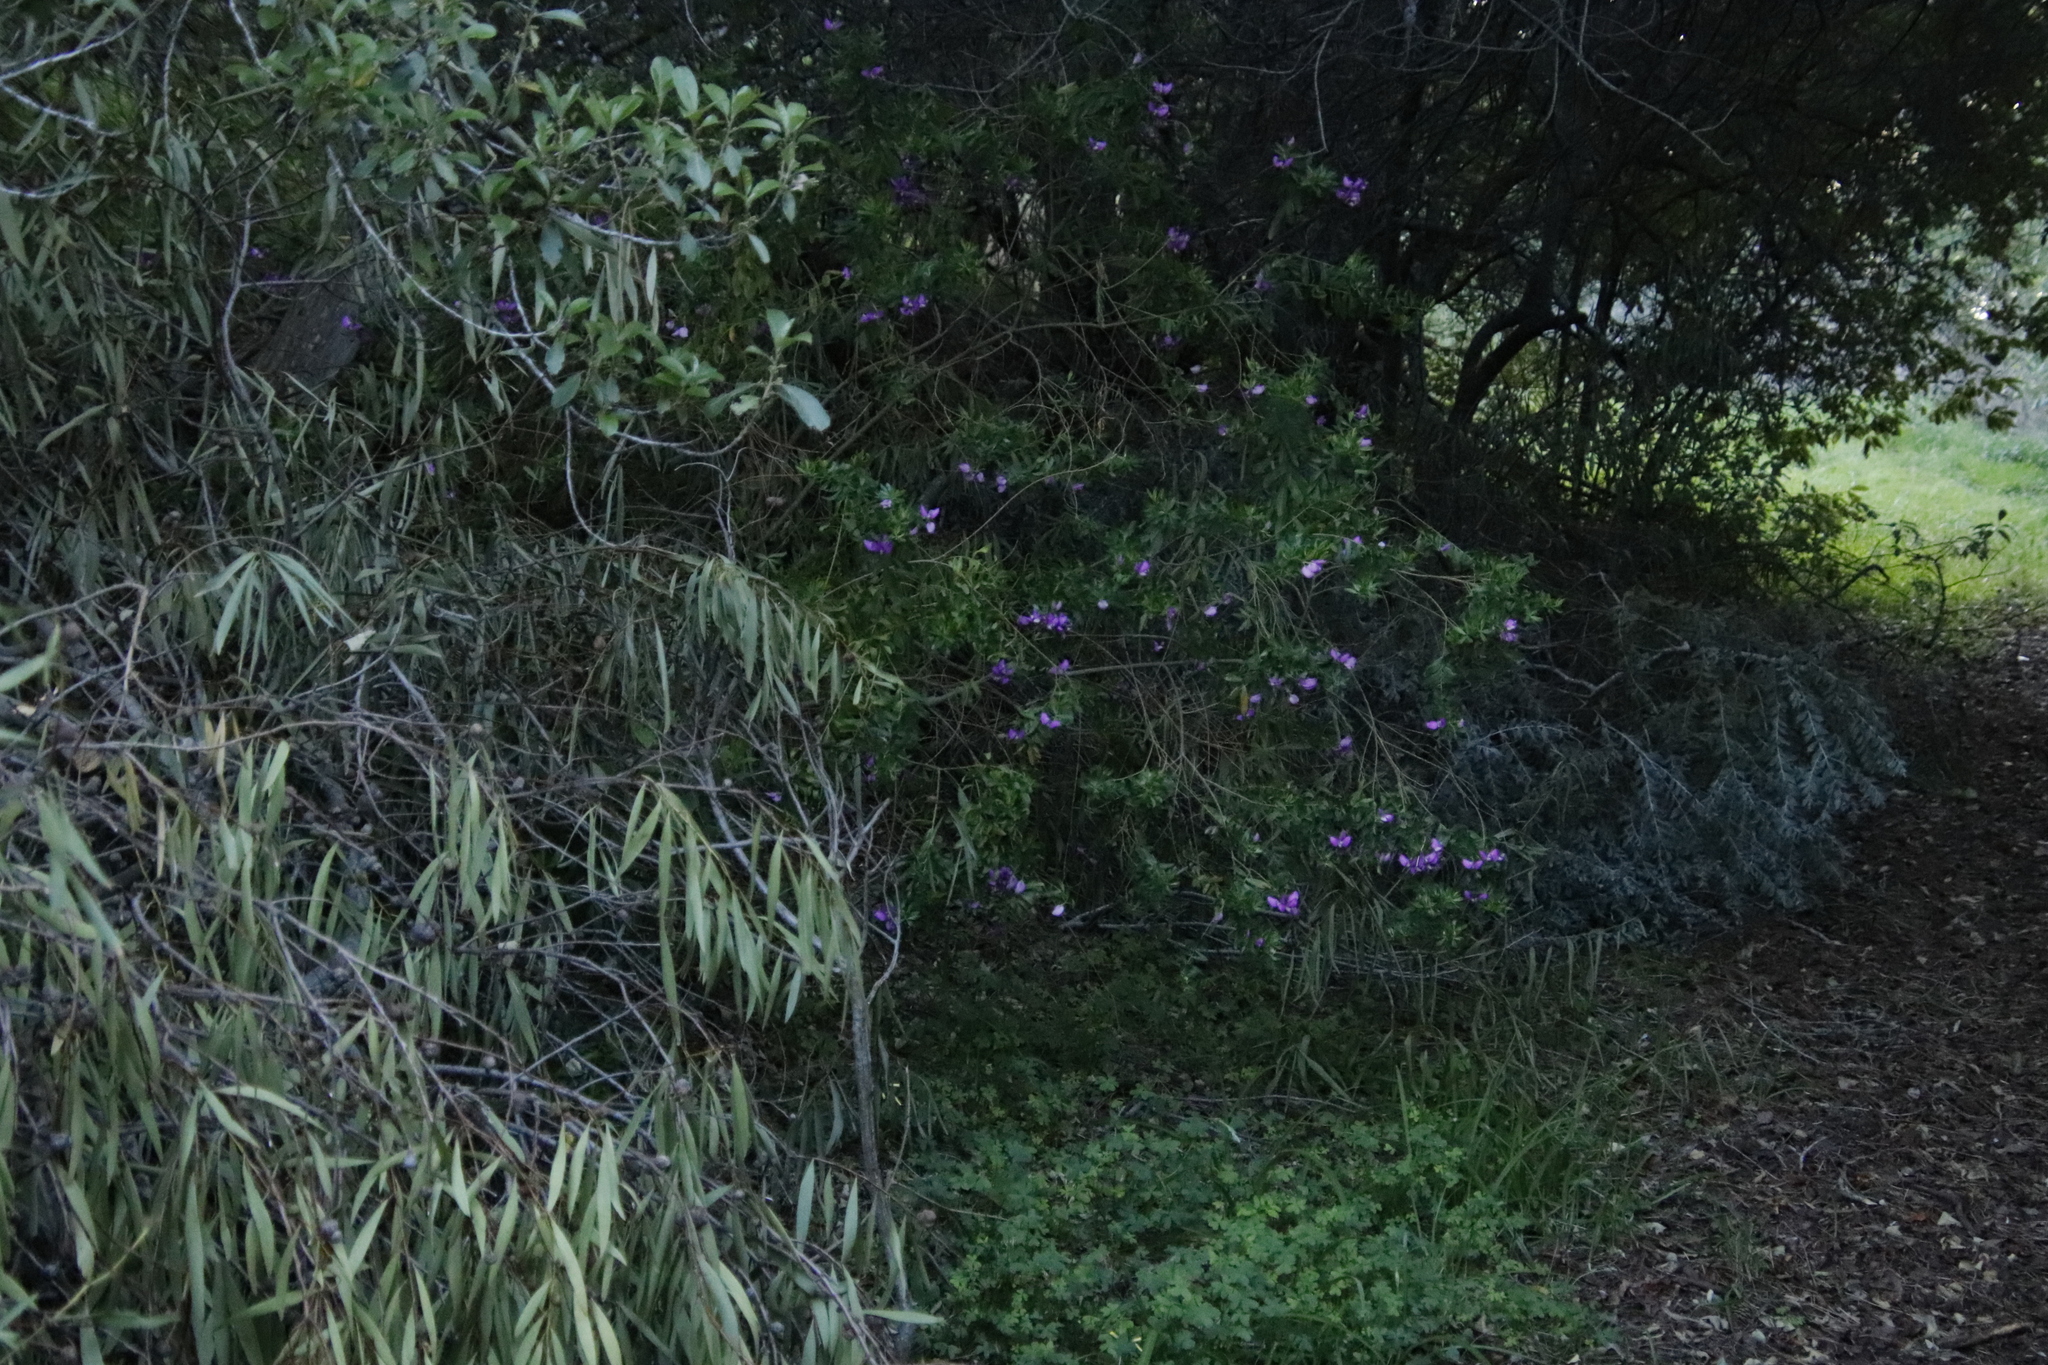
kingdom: Plantae
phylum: Tracheophyta
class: Magnoliopsida
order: Fabales
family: Polygalaceae
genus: Polygala
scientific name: Polygala myrtifolia
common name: Myrtle-leaf milkwort
